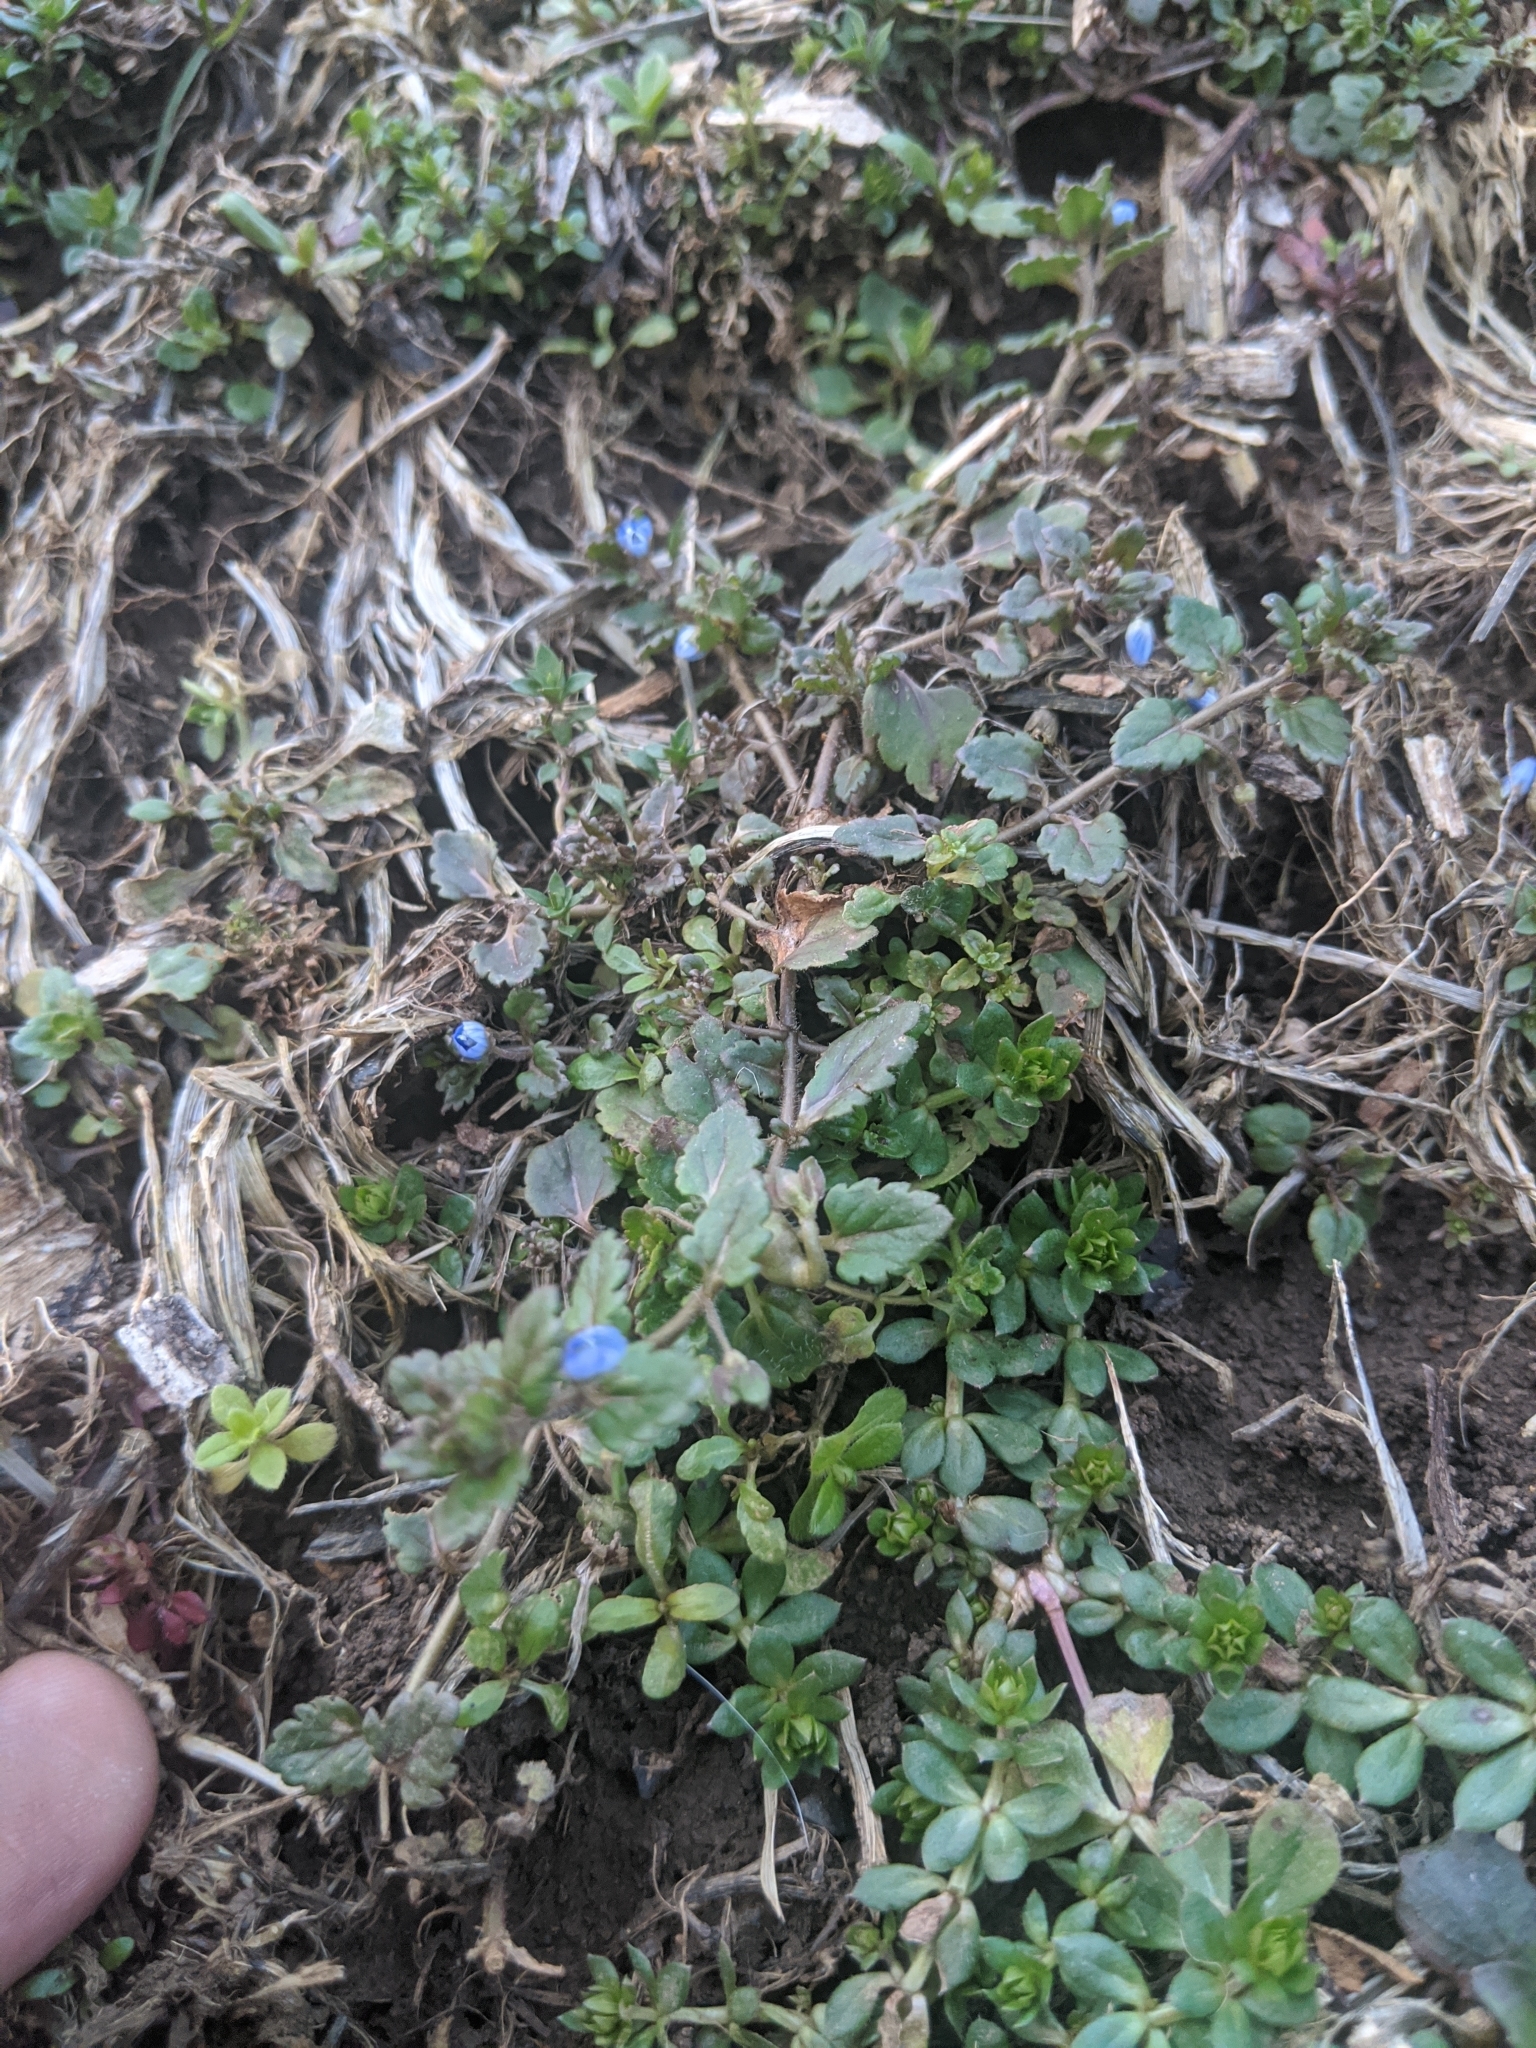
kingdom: Chromista
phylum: Cercozoa
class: Phytomyxea
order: Plasmodiophorida
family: Plasmodiophoridae
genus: Sorosphaerula
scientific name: Sorosphaerula veronicae
